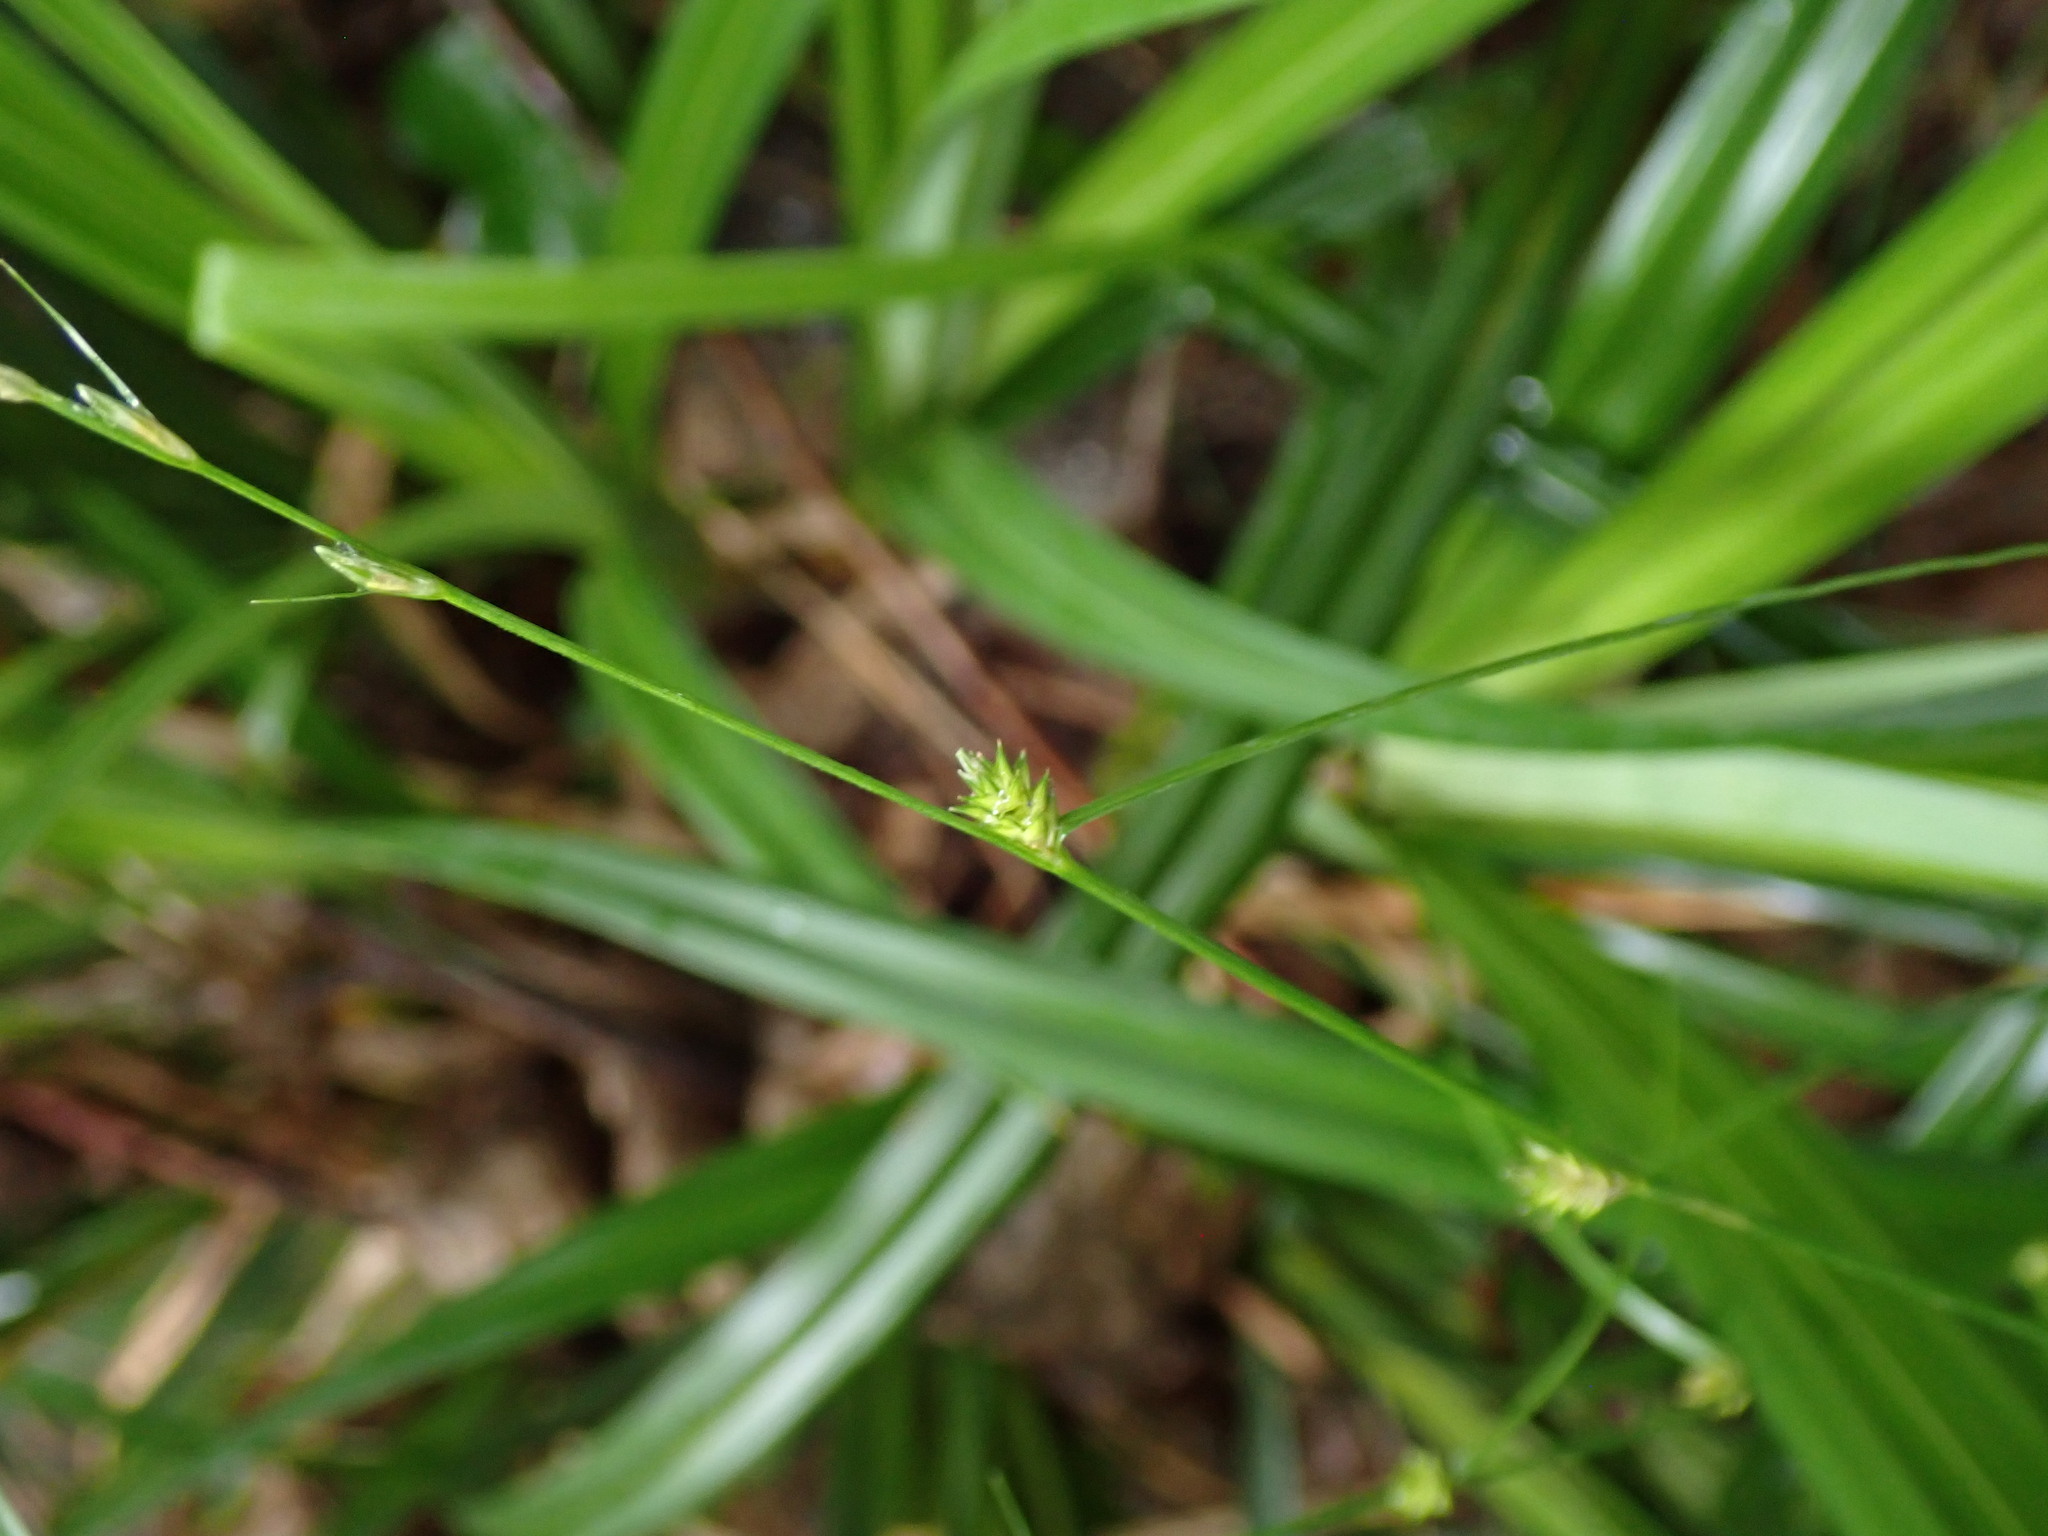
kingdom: Plantae
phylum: Tracheophyta
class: Liliopsida
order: Poales
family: Cyperaceae
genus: Carex
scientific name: Carex remota
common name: Remote sedge
